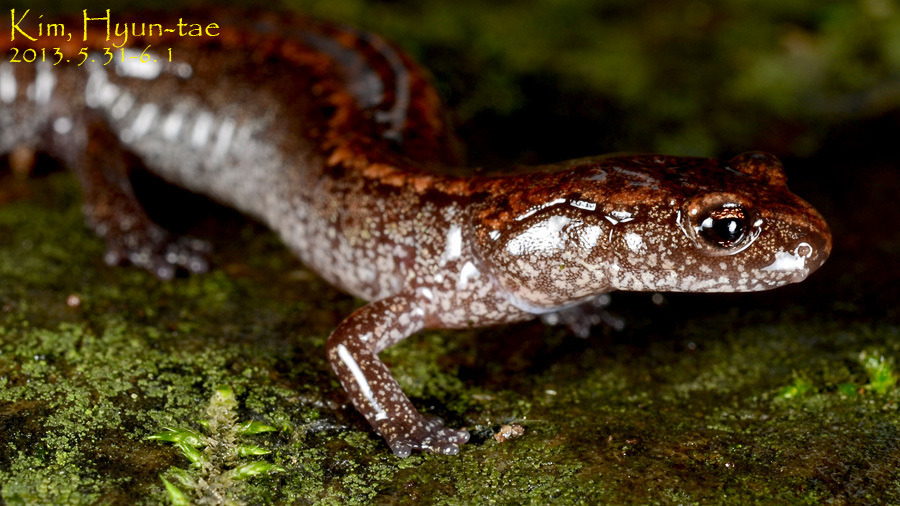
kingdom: Animalia
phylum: Chordata
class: Amphibia
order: Caudata
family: Plethodontidae
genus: Karsenia
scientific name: Karsenia koreana
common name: Korean crevice salamander
